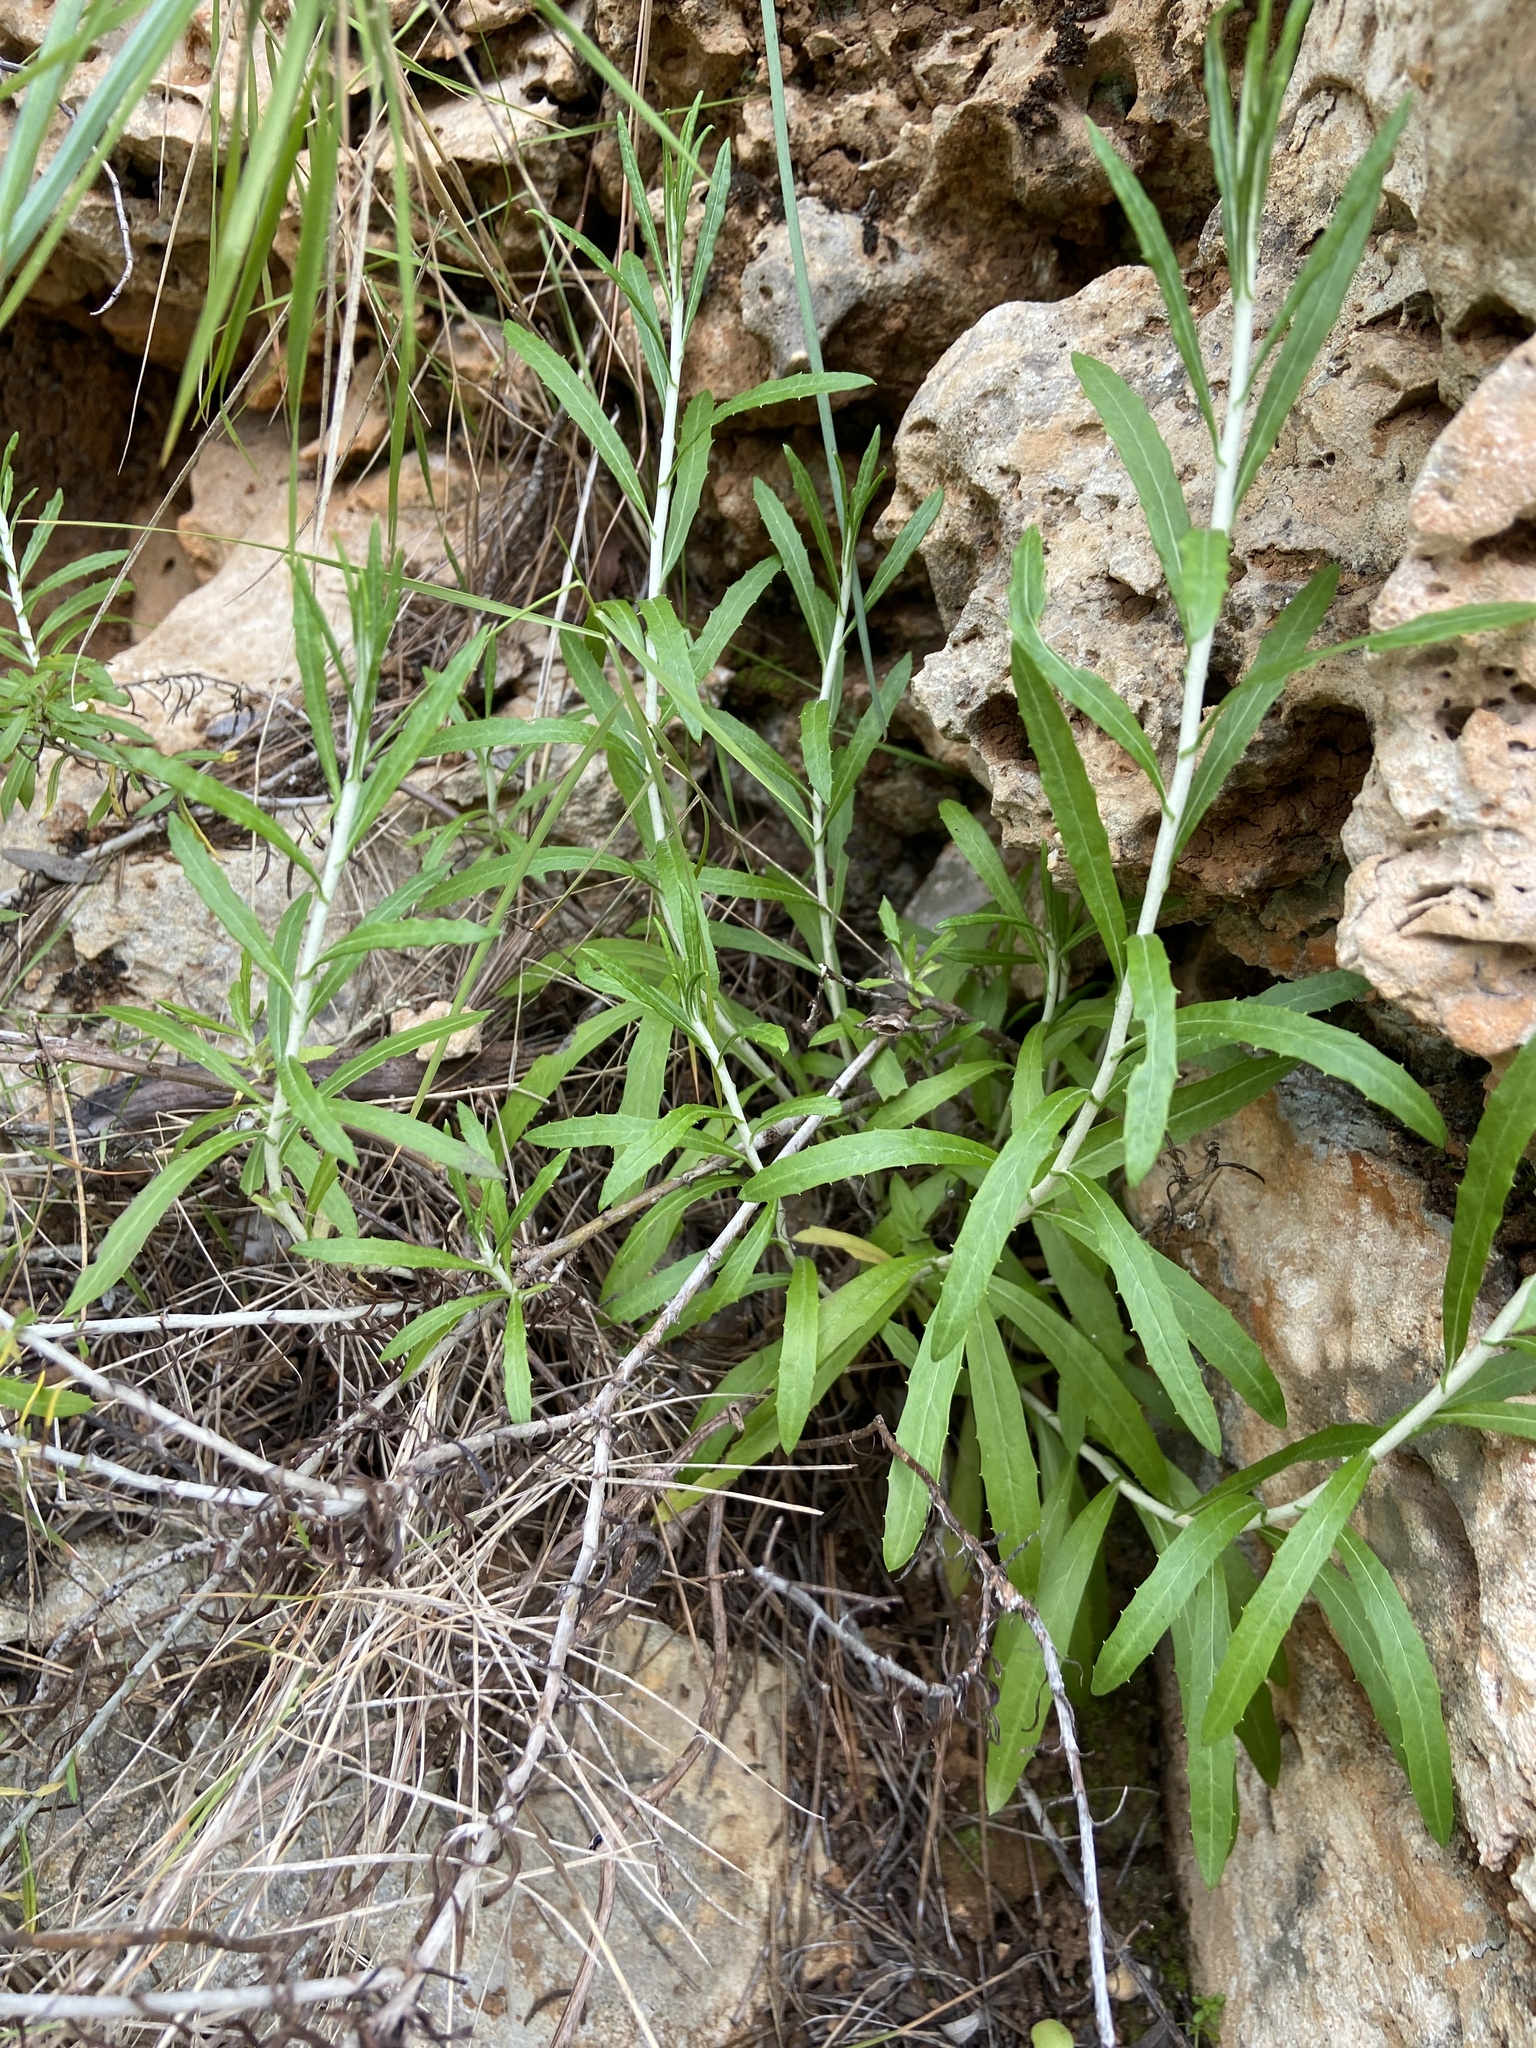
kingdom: Plantae
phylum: Tracheophyta
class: Magnoliopsida
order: Asterales
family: Asteraceae
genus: Phagnalon
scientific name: Phagnalon saxatile
